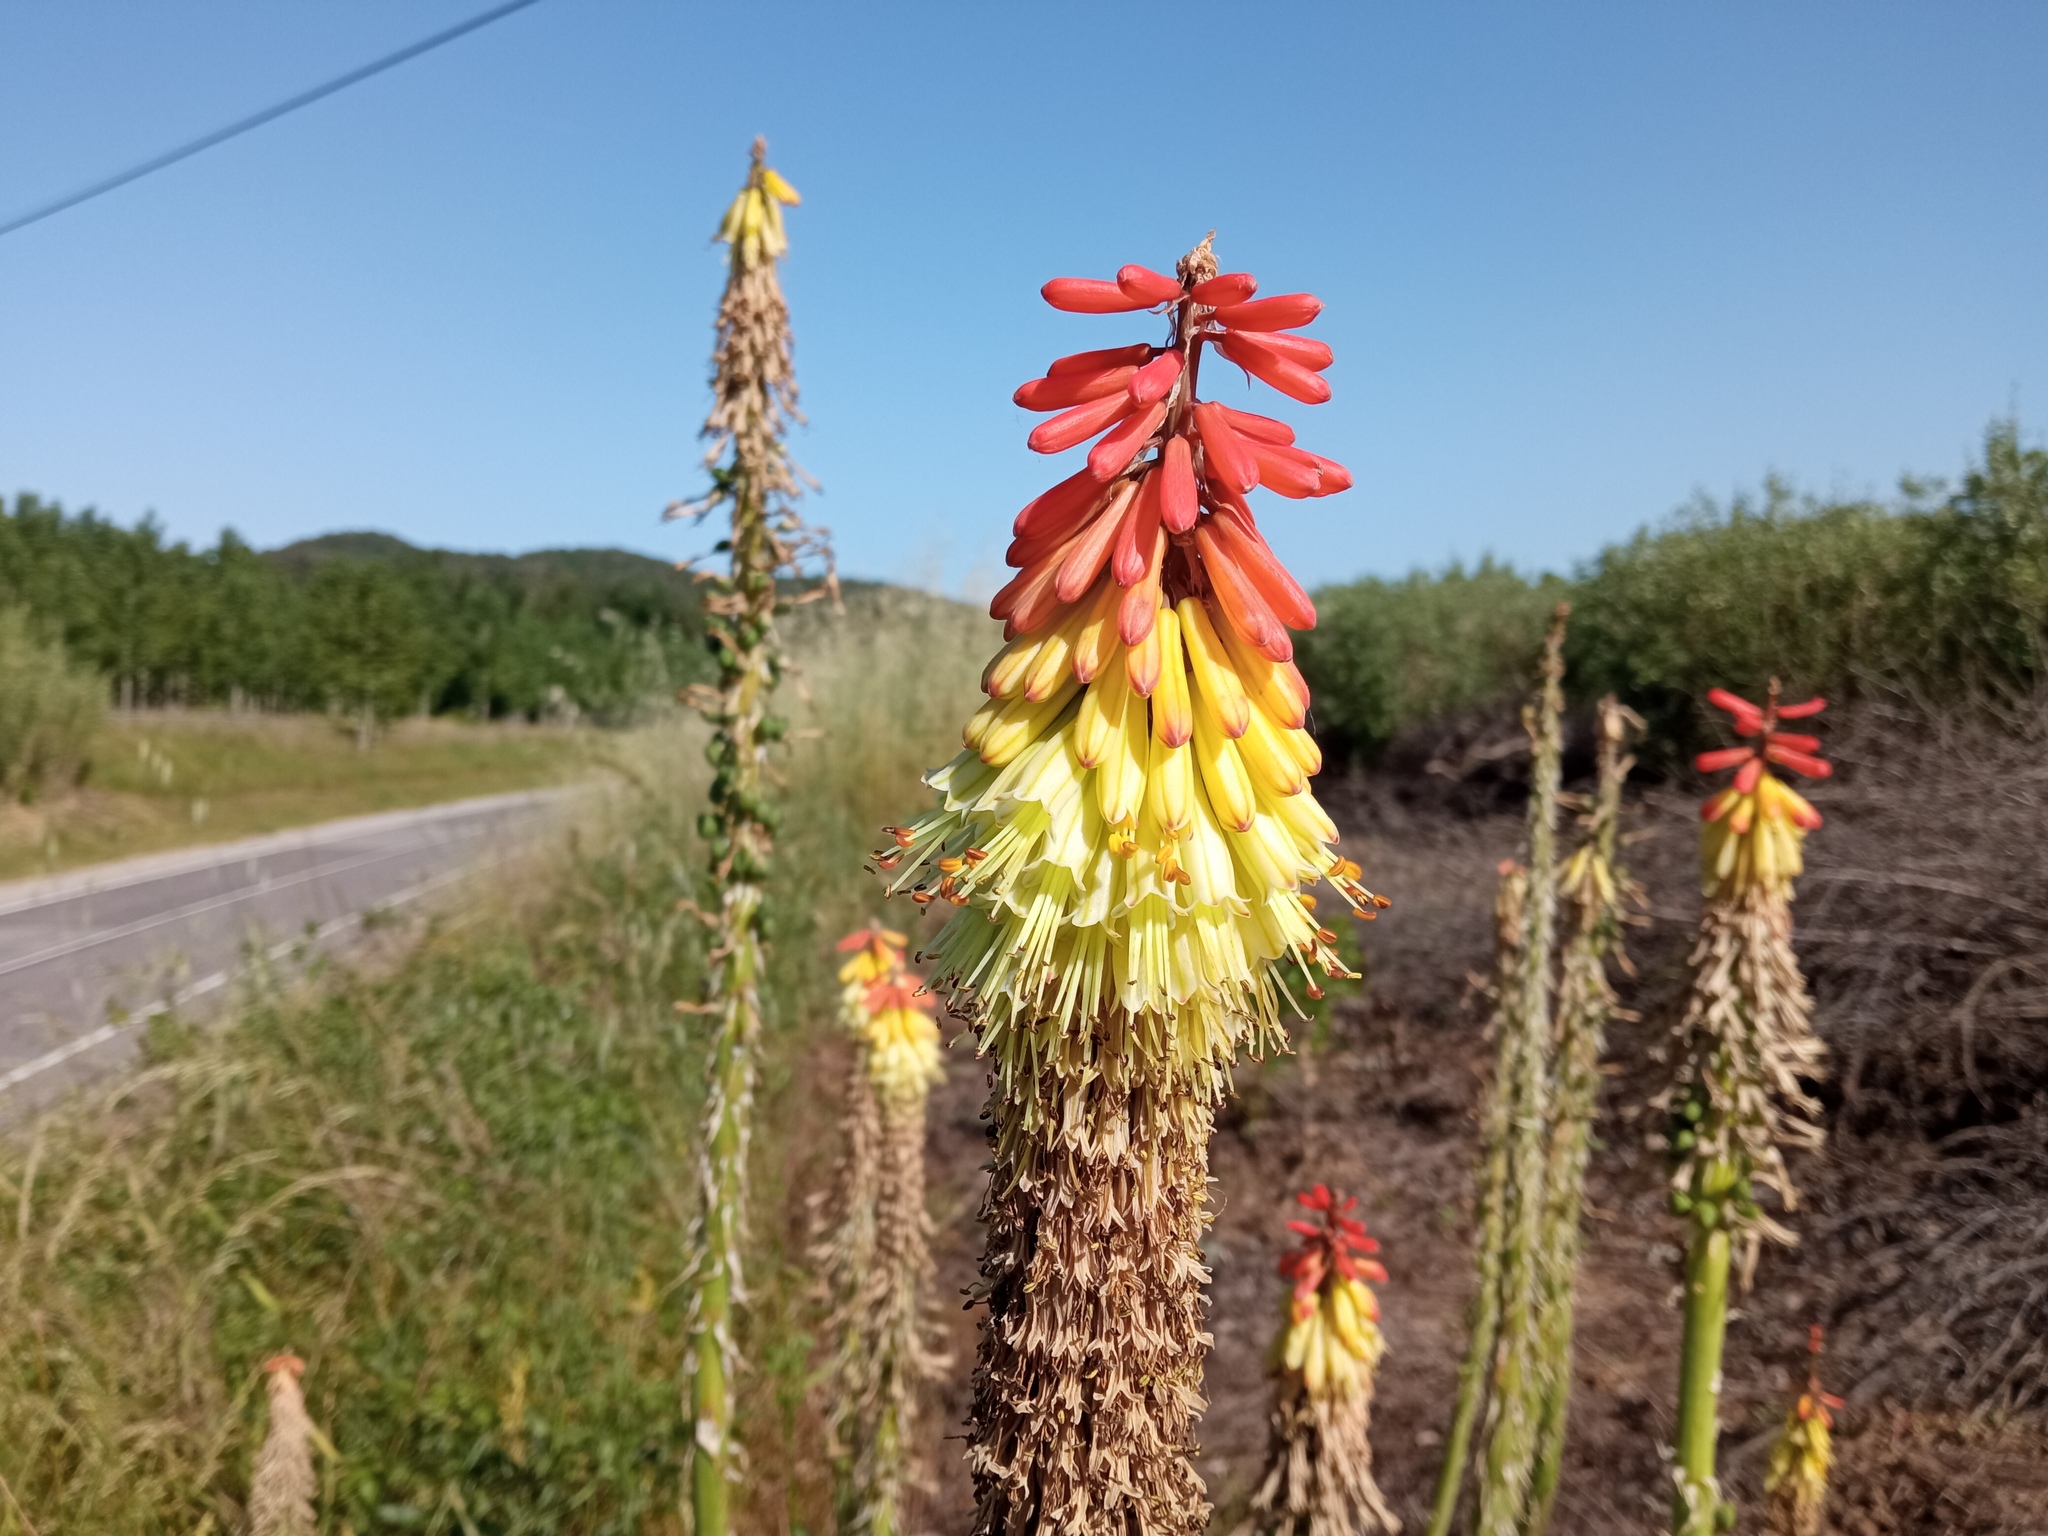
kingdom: Plantae
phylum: Tracheophyta
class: Liliopsida
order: Asparagales
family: Asphodelaceae
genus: Kniphofia
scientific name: Kniphofia praecox
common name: Greater red-hot-poker
